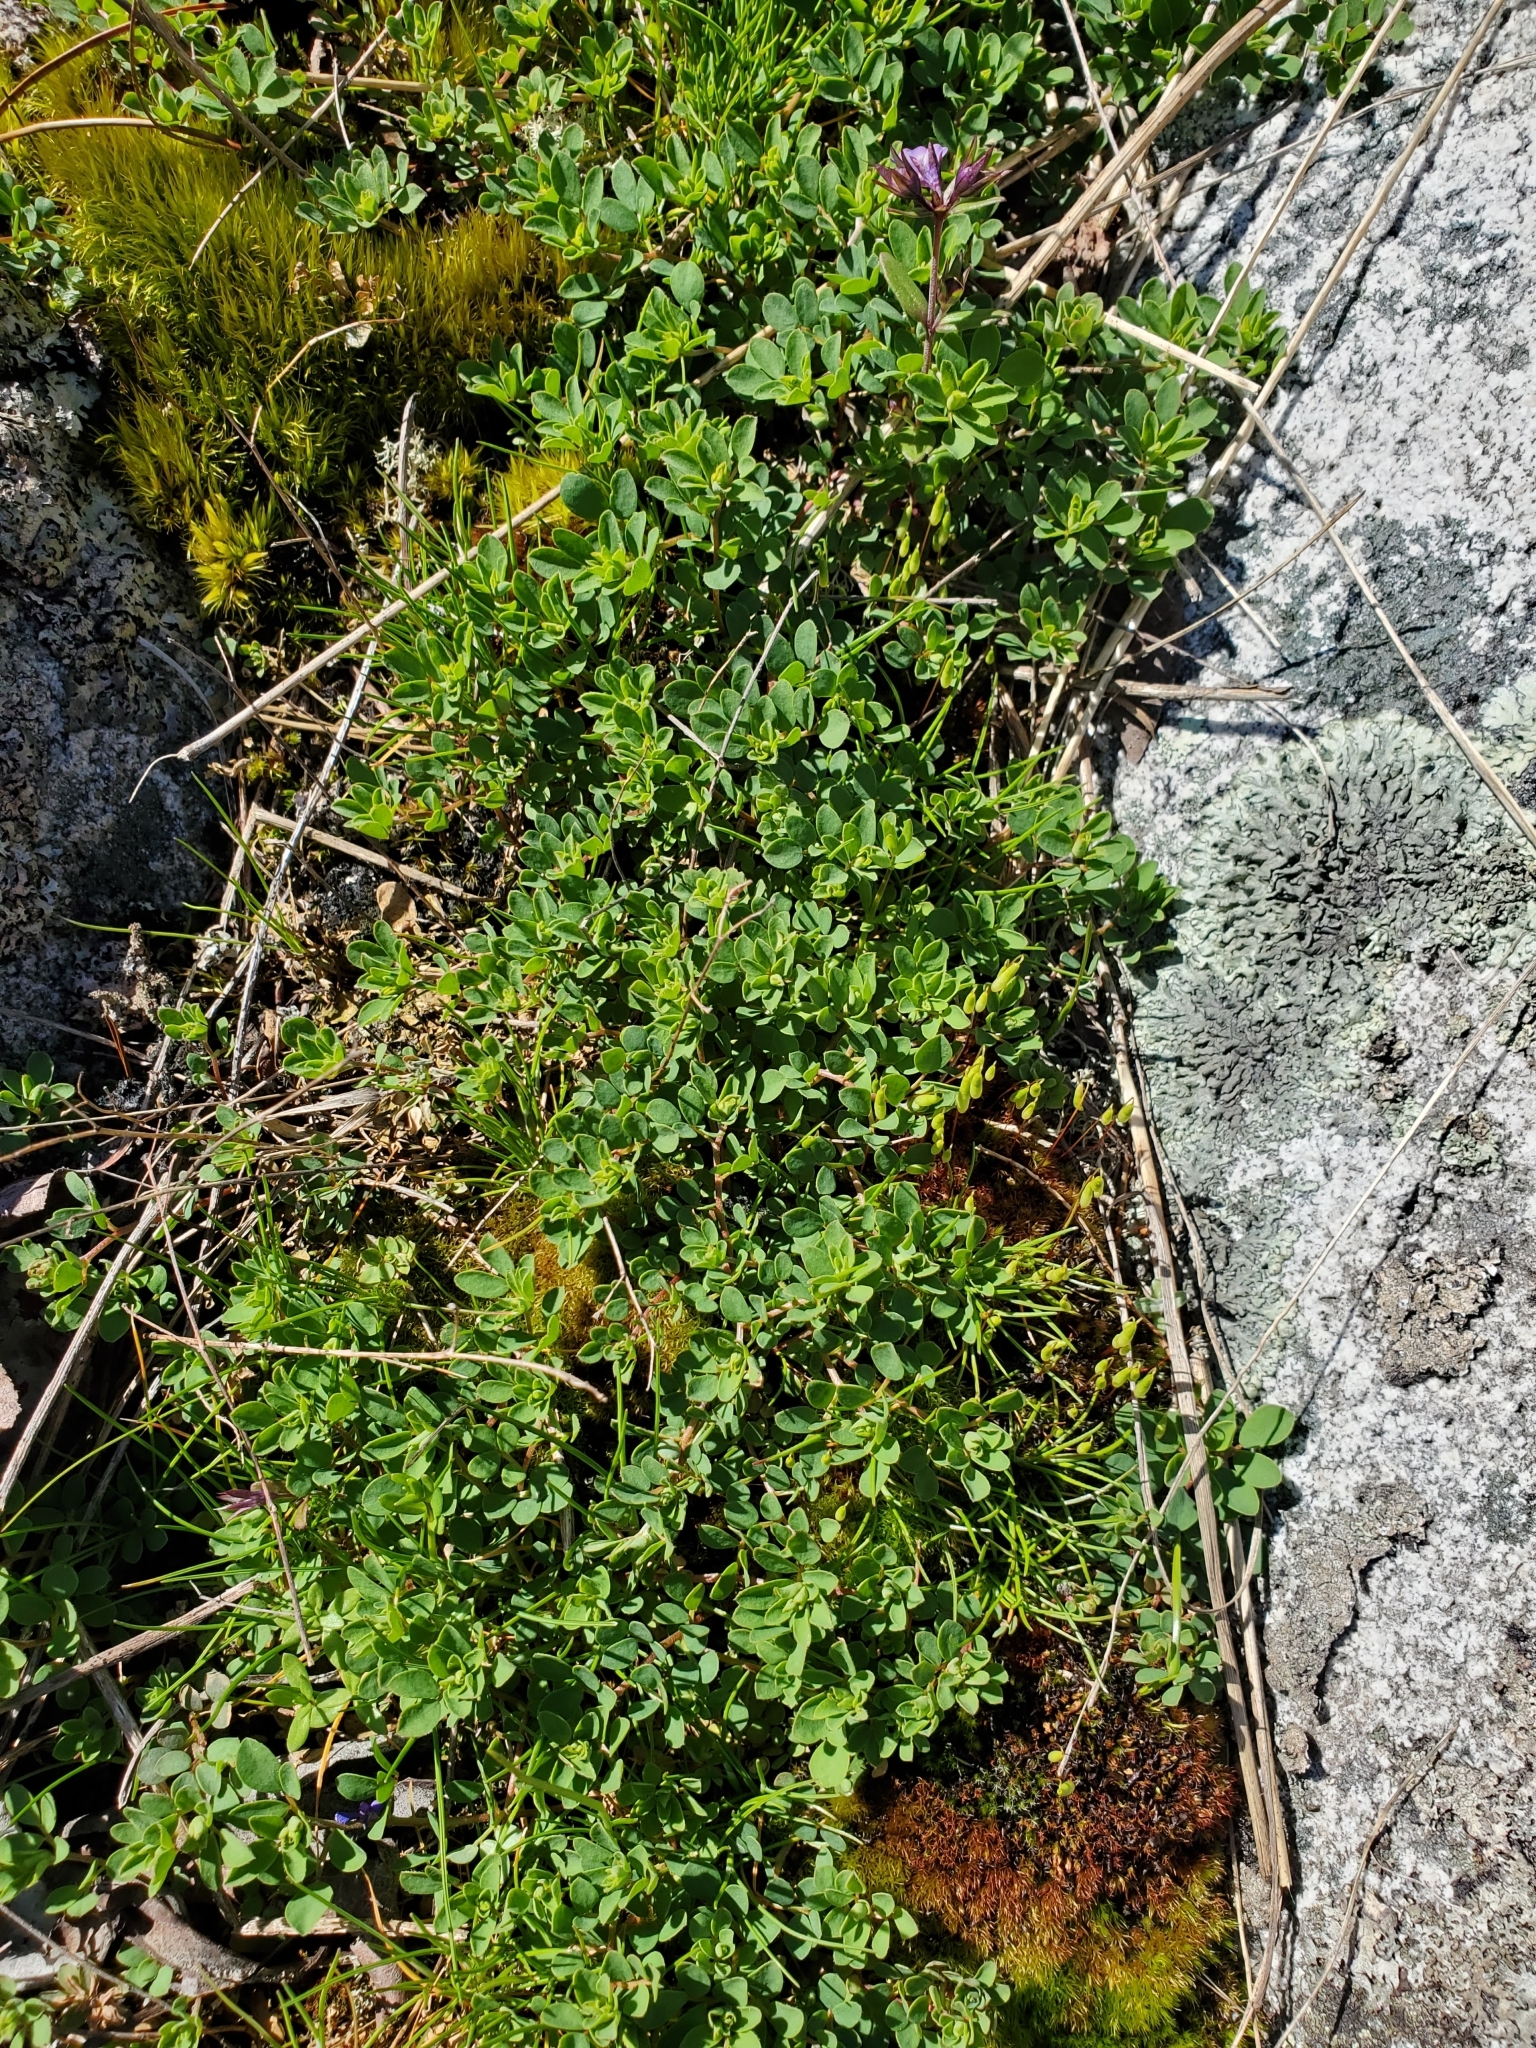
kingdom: Plantae
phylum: Tracheophyta
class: Magnoliopsida
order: Fabales
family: Fabaceae
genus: Acmispon
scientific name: Acmispon parviflorus
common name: Desert deer-vetch
